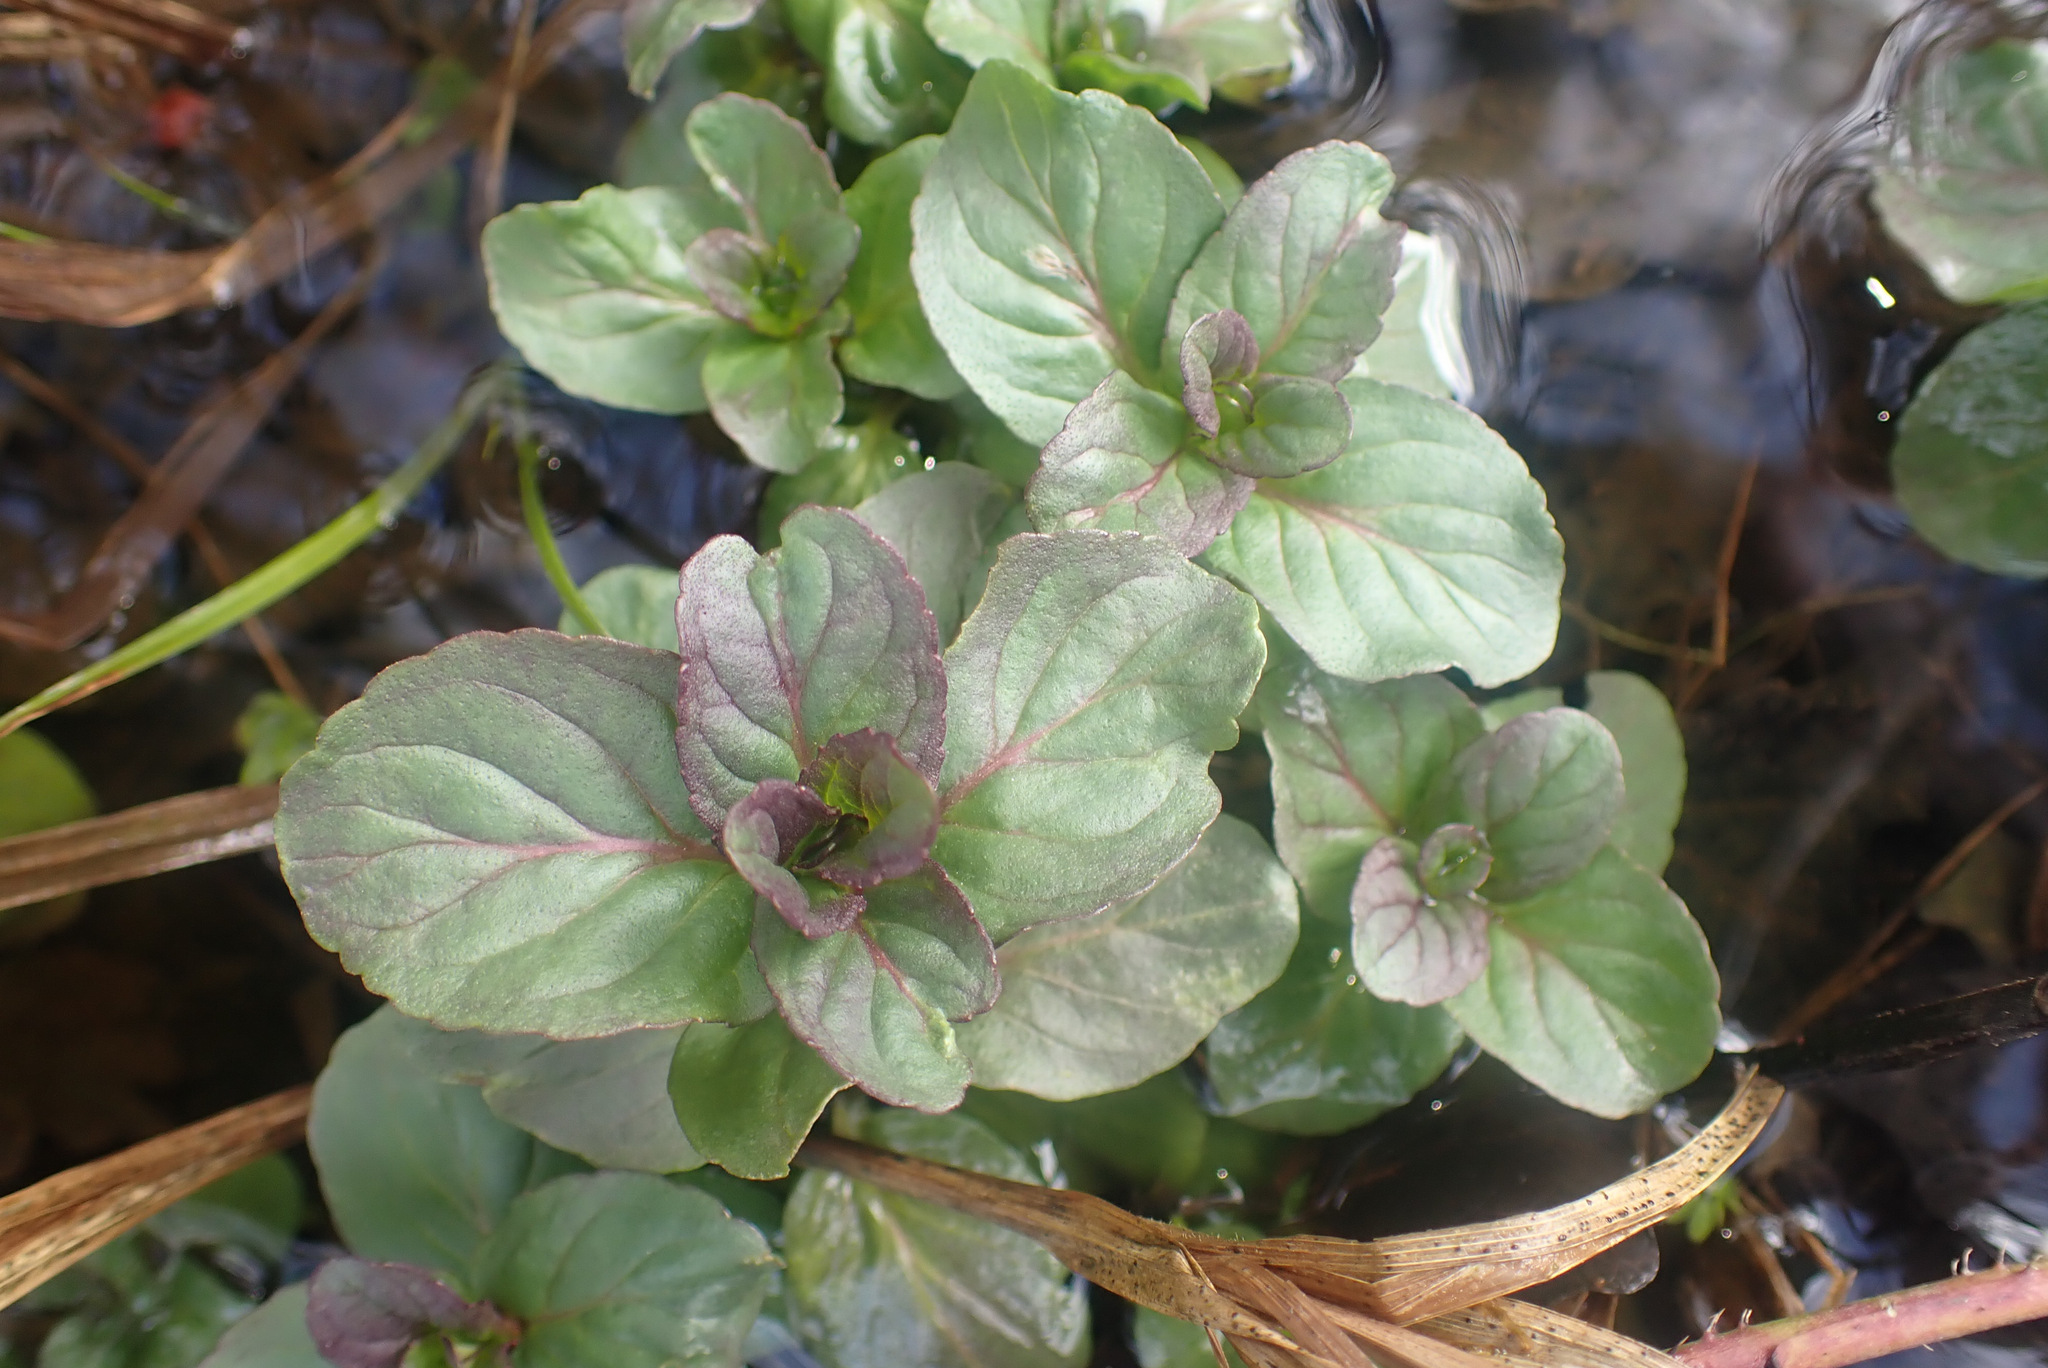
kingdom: Plantae
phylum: Tracheophyta
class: Magnoliopsida
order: Lamiales
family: Lamiaceae
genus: Mentha
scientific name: Mentha aquatica
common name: Water mint
